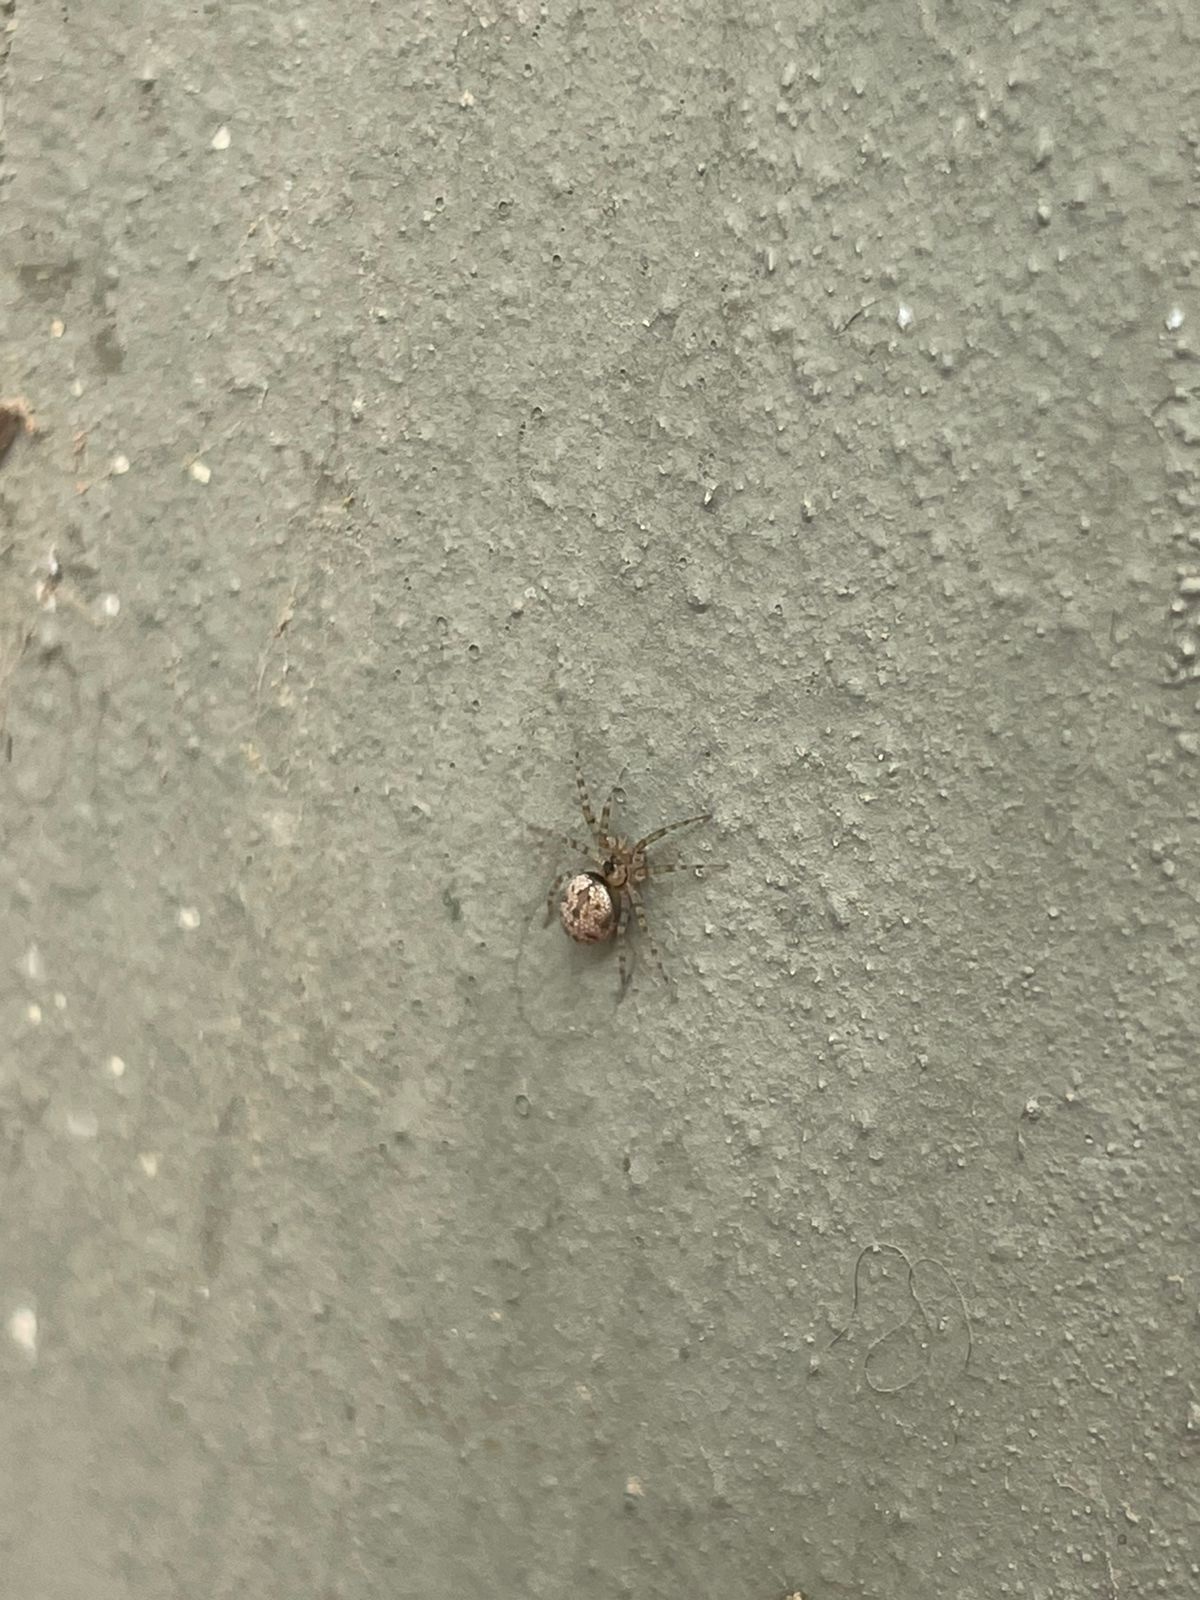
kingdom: Animalia
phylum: Arthropoda
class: Arachnida
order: Araneae
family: Oecobiidae
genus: Oecobius
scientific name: Oecobius navus
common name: Flatmesh weaver
